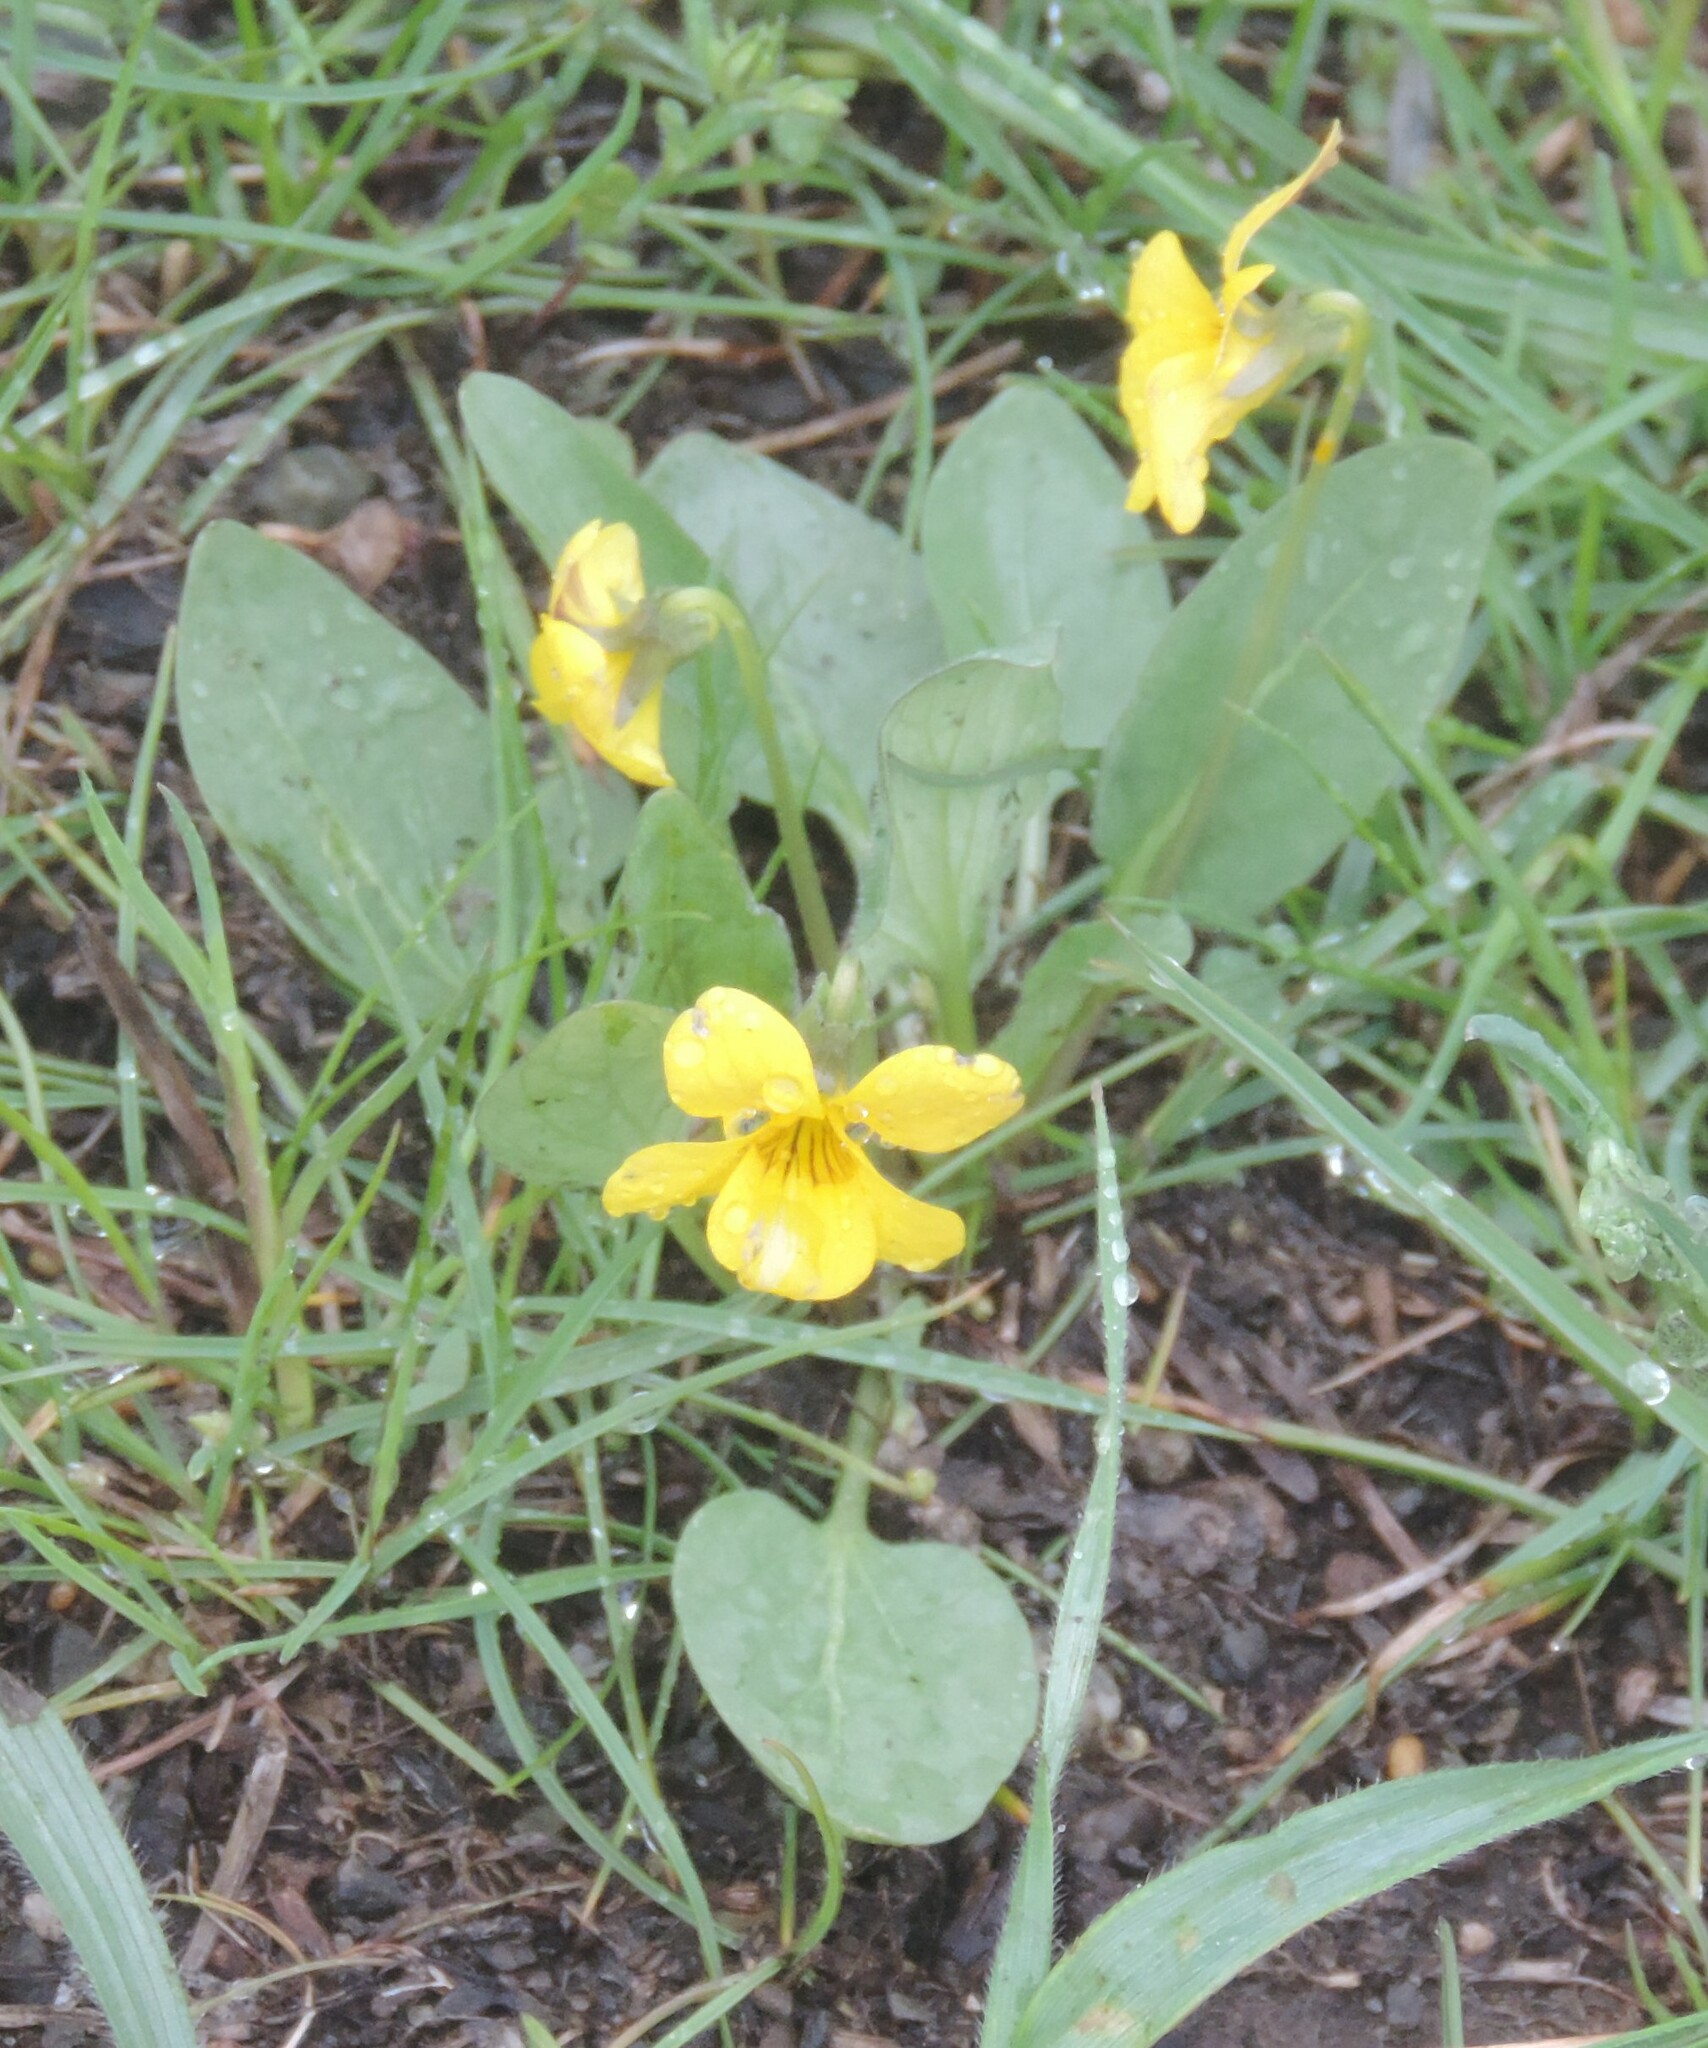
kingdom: Plantae
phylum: Tracheophyta
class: Magnoliopsida
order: Malpighiales
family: Violaceae
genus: Viola
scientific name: Viola vallicola
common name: Valley violet
